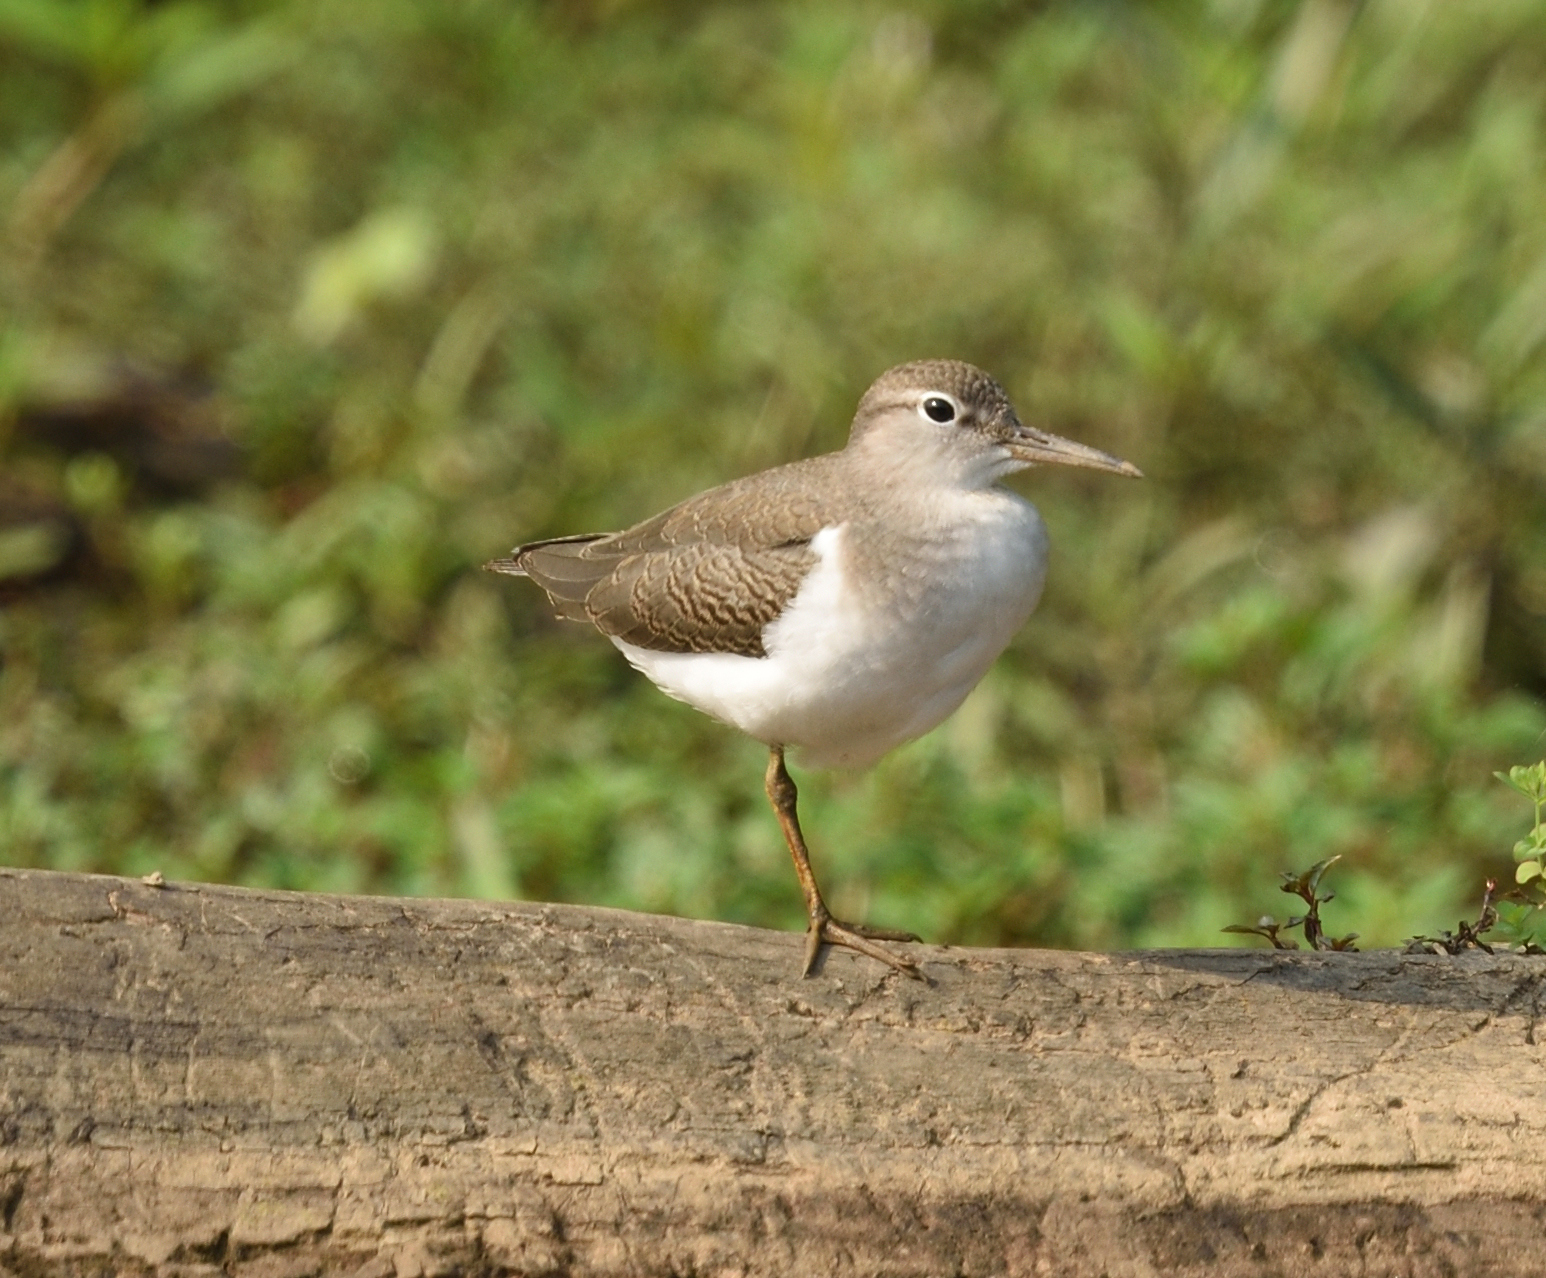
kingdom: Animalia
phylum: Chordata
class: Aves
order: Charadriiformes
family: Scolopacidae
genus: Actitis
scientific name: Actitis macularius
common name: Spotted sandpiper
